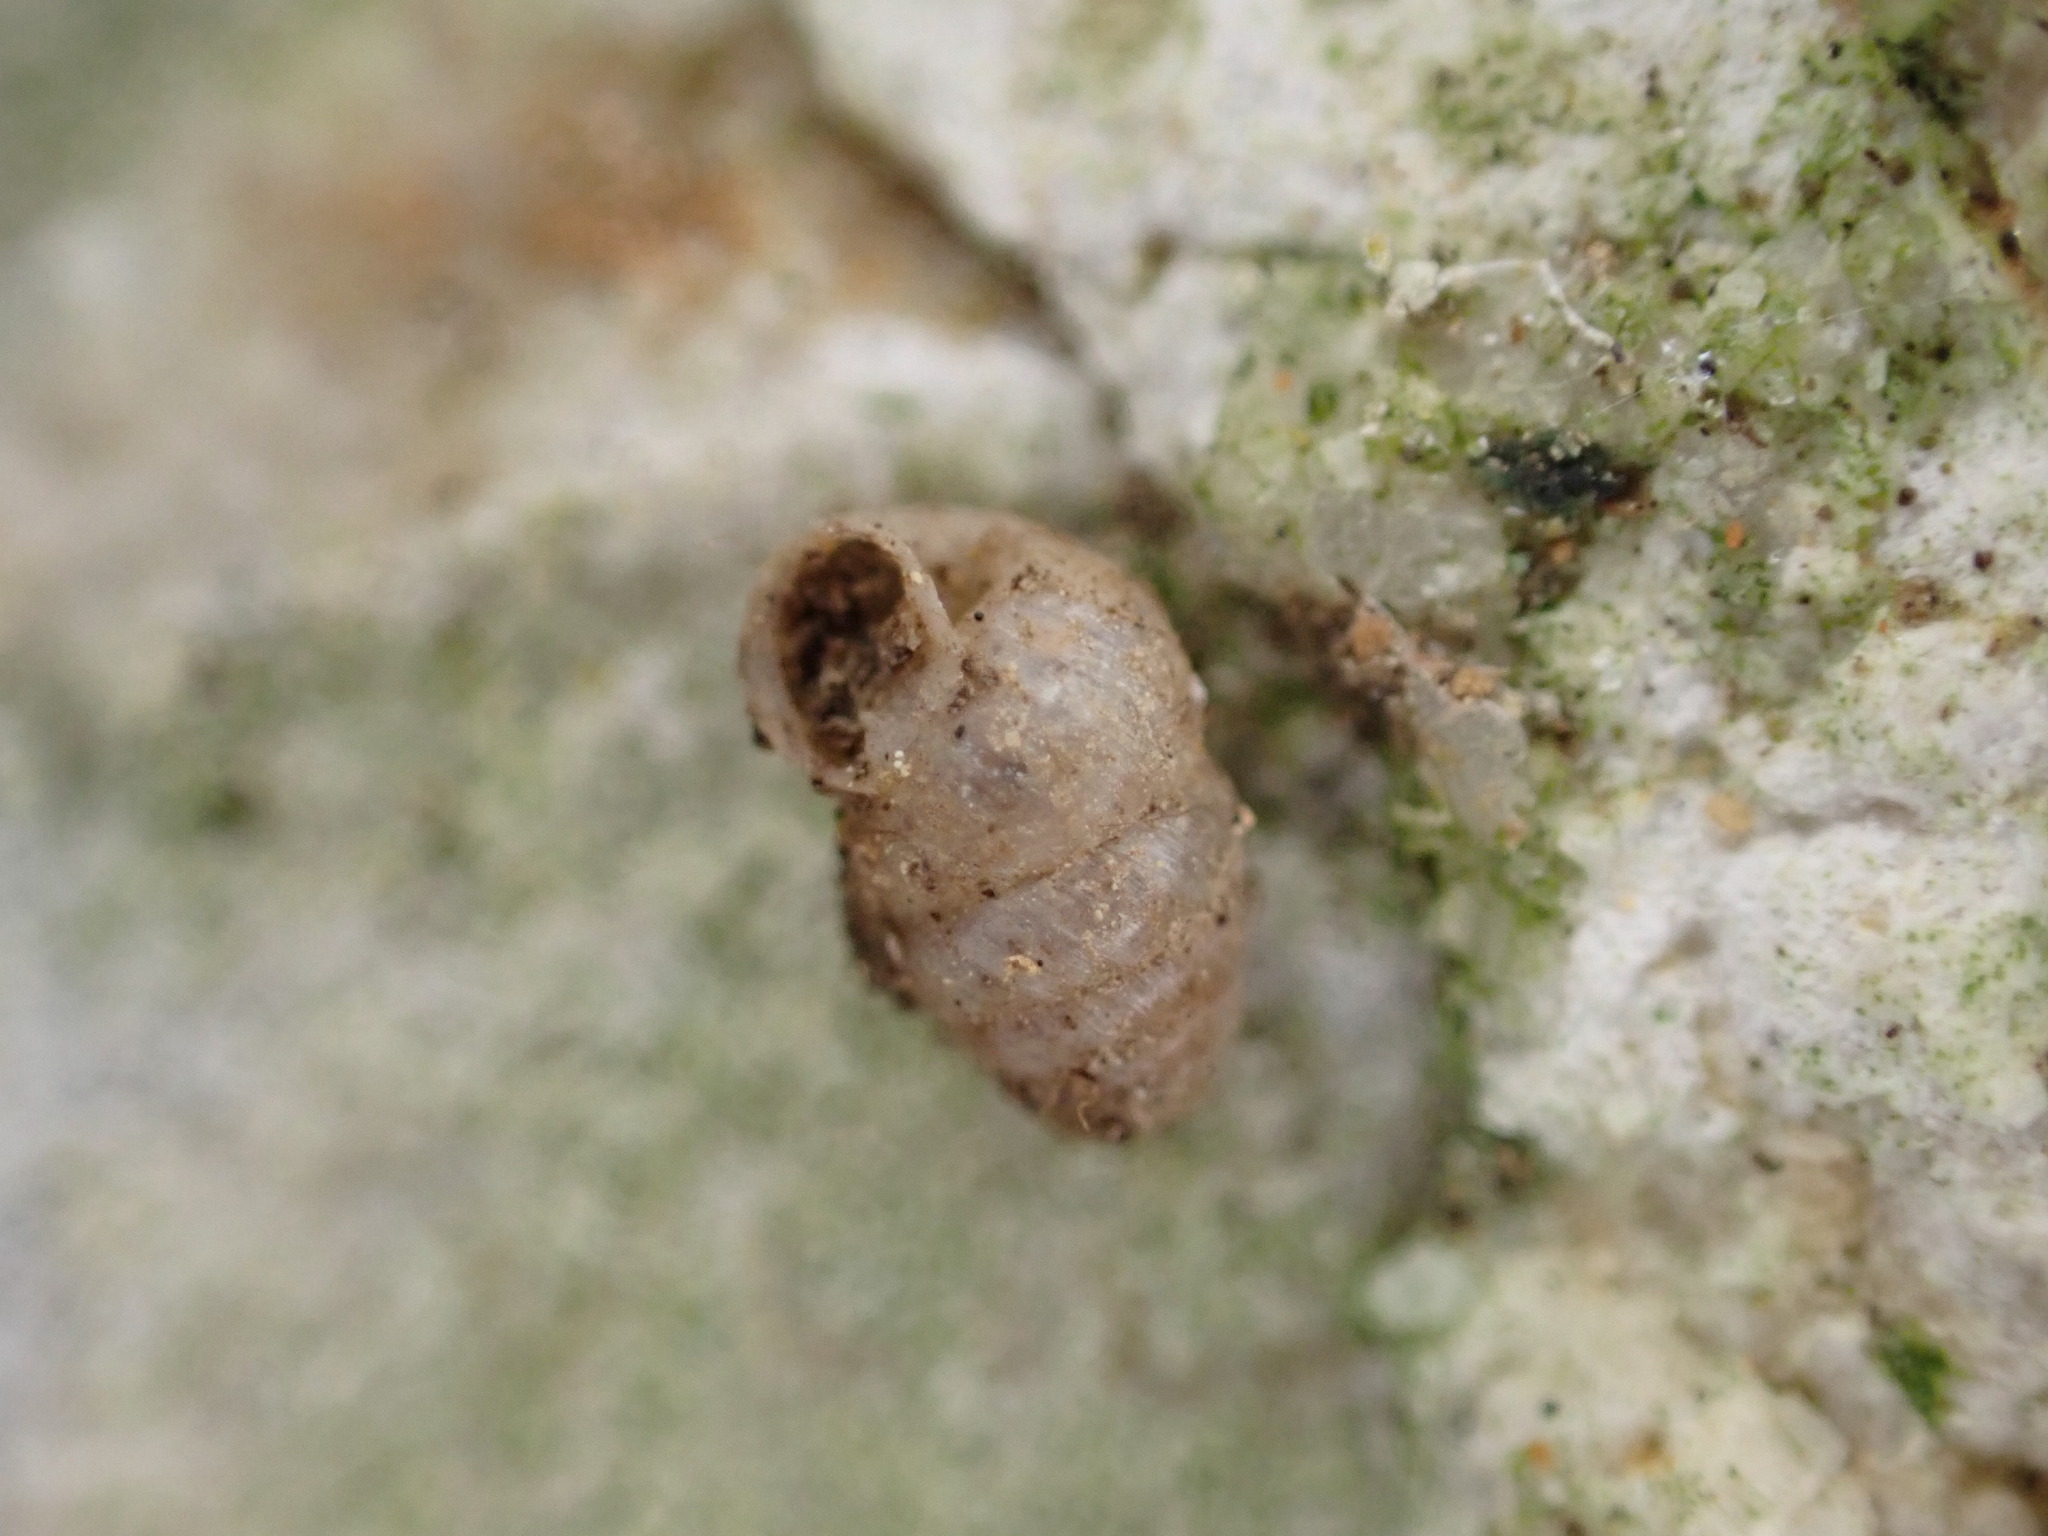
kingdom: Animalia
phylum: Mollusca
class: Gastropoda
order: Stylommatophora
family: Lauriidae
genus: Lauria
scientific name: Lauria cylindracea
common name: Common chrysalis snail
